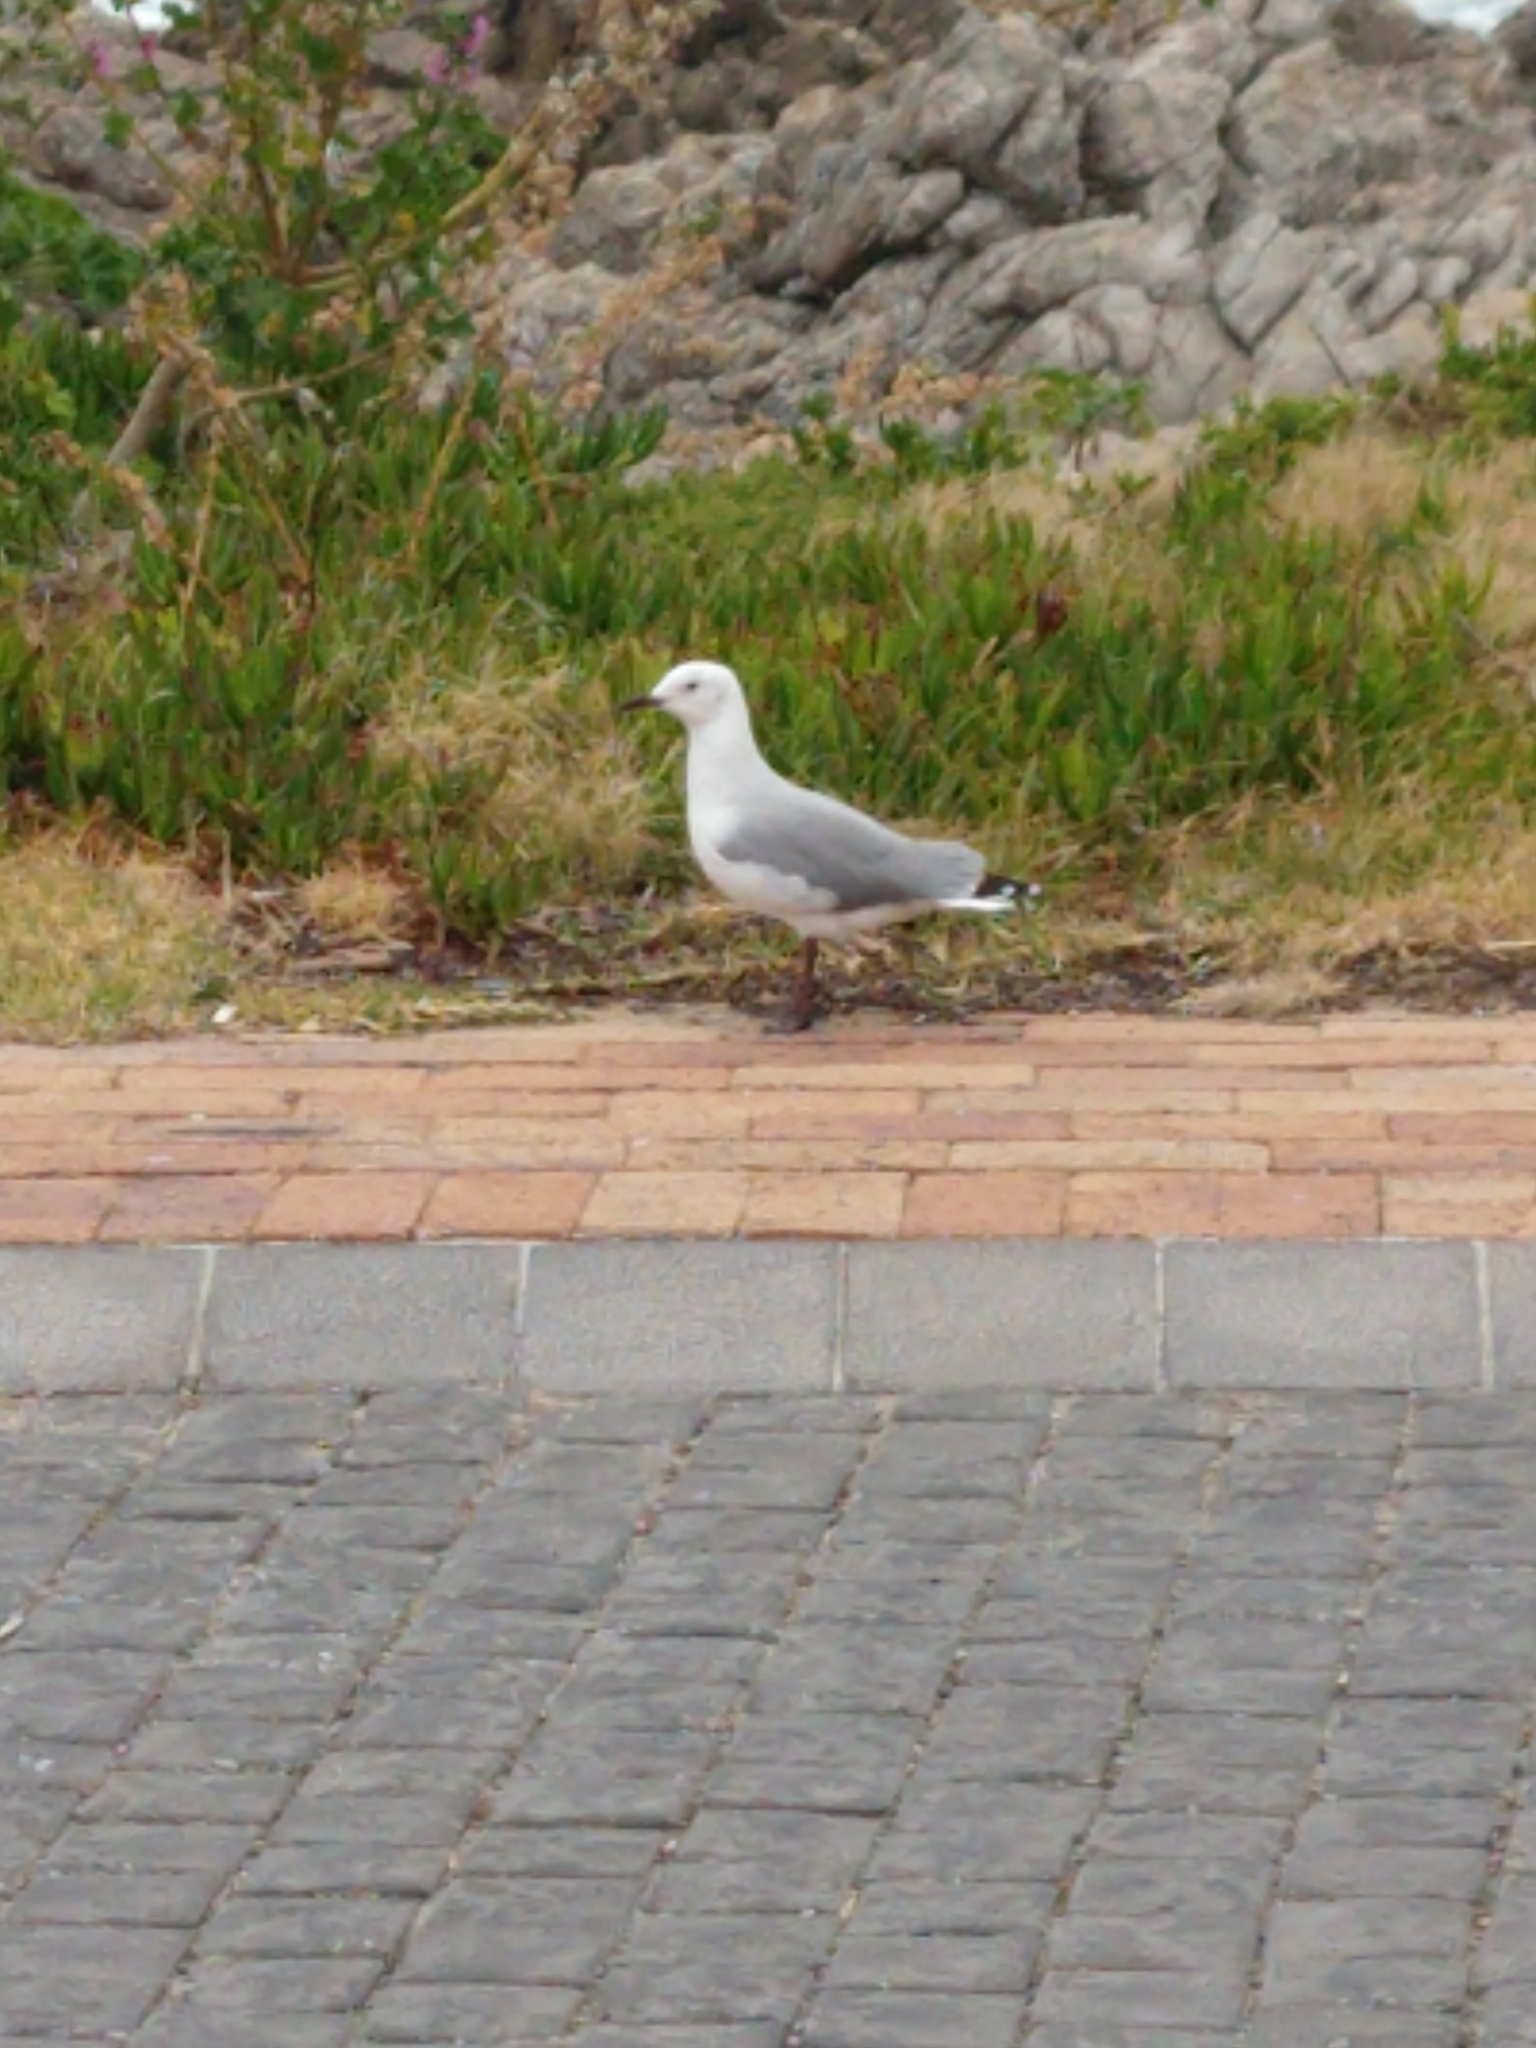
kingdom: Animalia
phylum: Chordata
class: Aves
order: Charadriiformes
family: Laridae
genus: Chroicocephalus
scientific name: Chroicocephalus hartlaubii
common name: Hartlaub's gull
